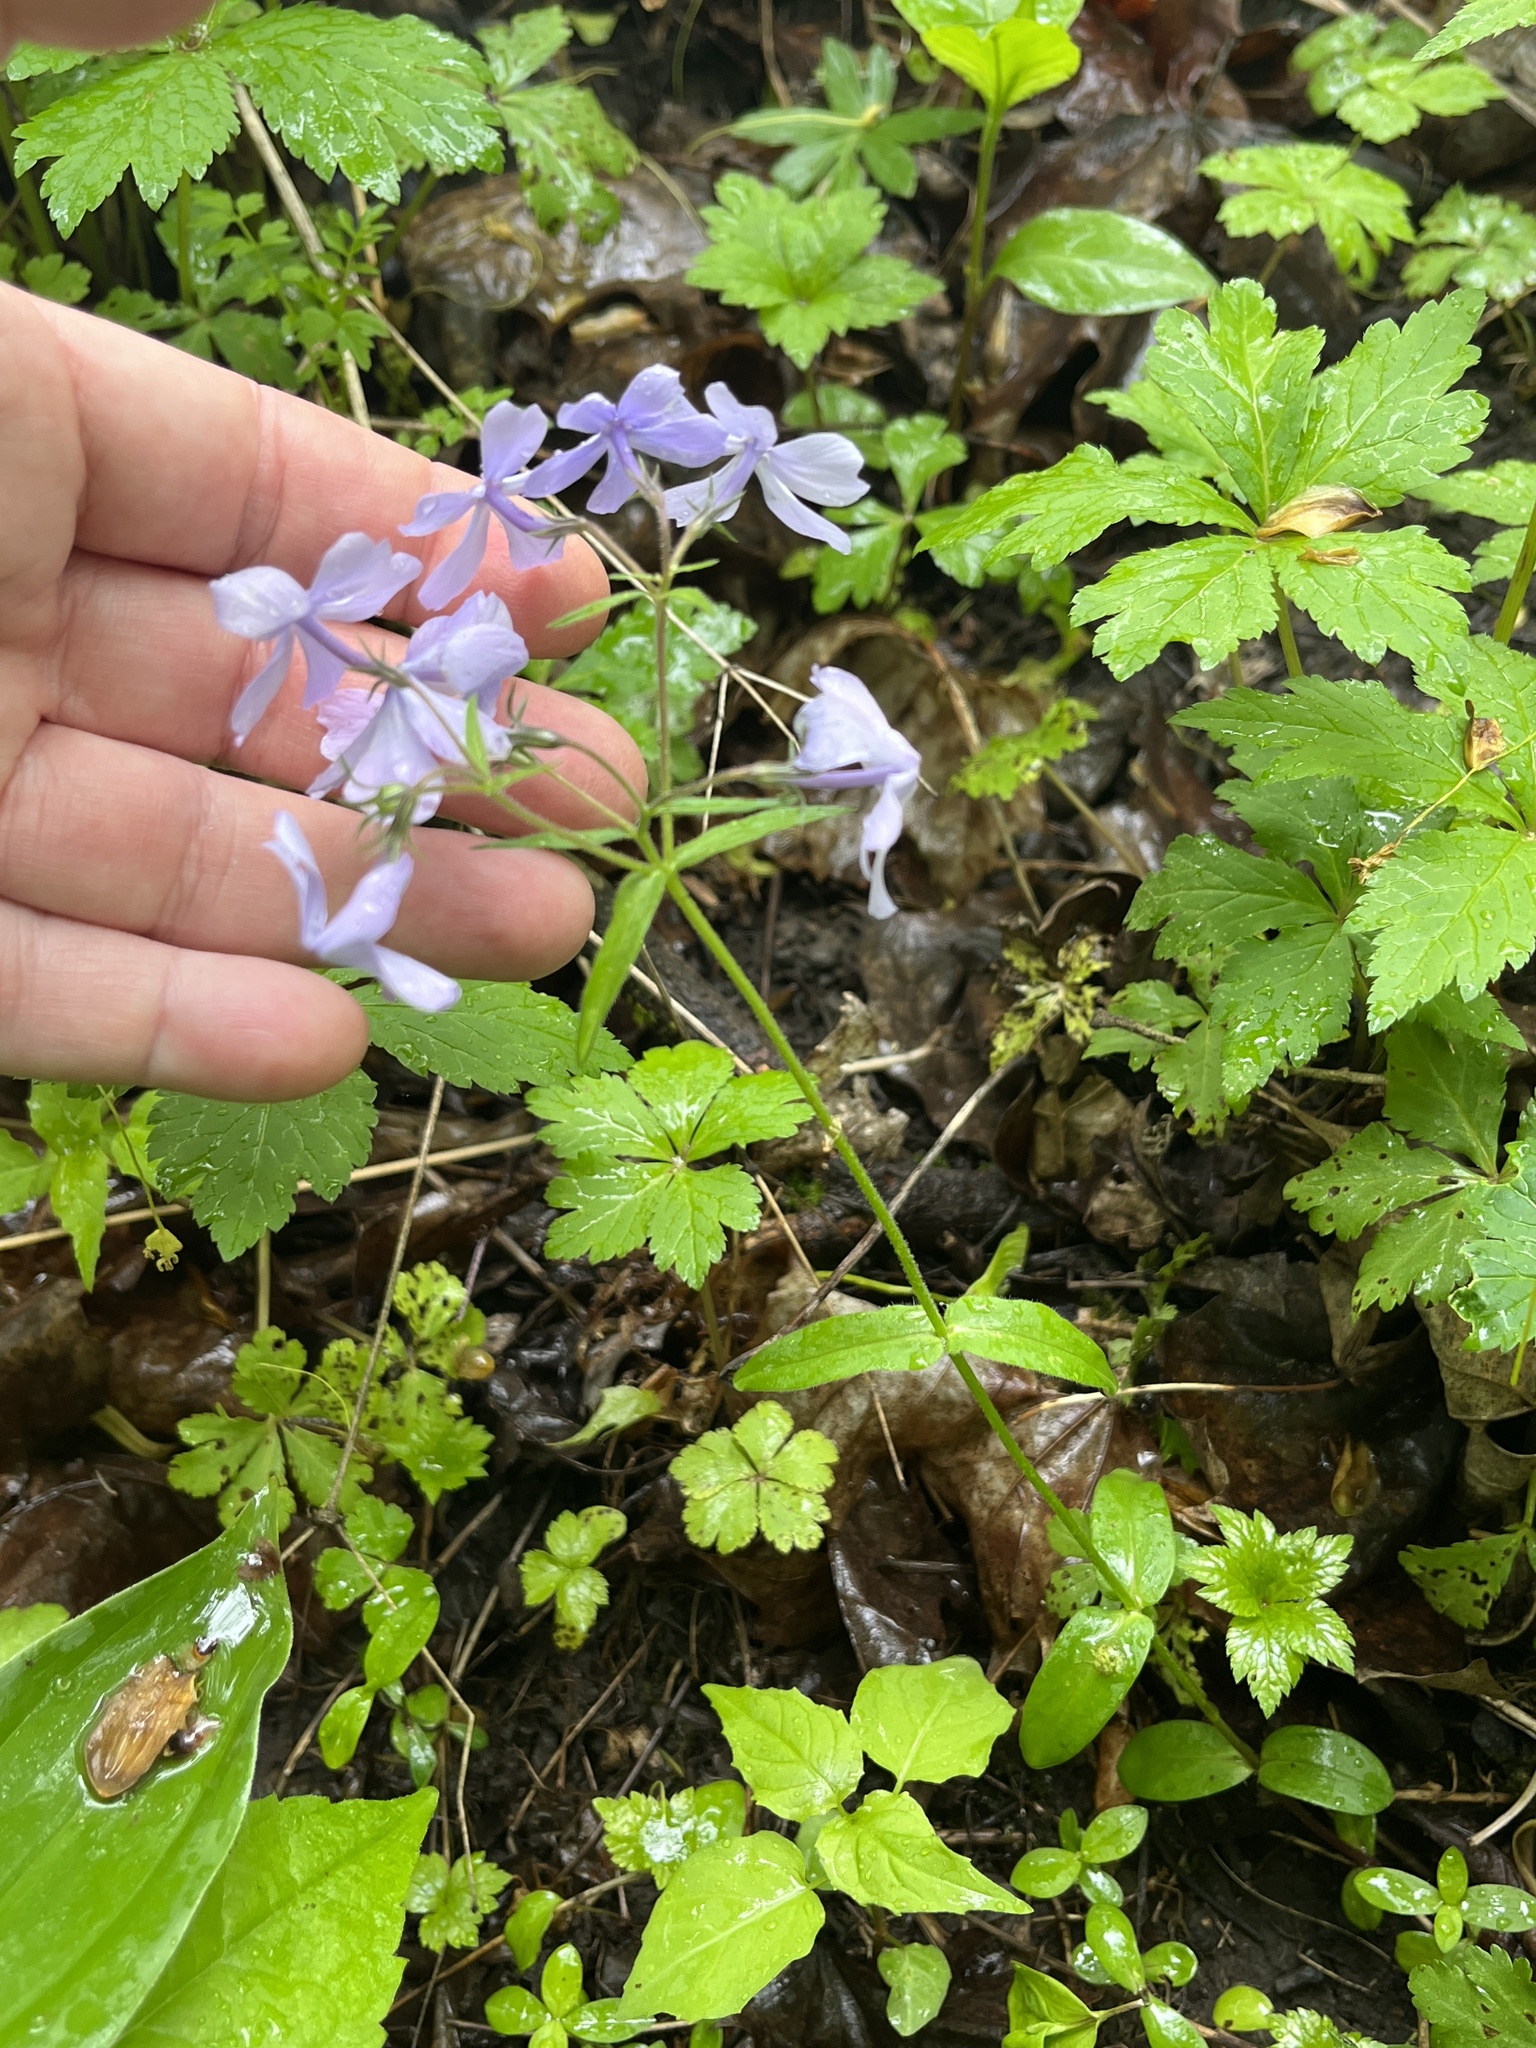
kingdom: Plantae
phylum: Tracheophyta
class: Magnoliopsida
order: Ericales
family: Polemoniaceae
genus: Phlox
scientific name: Phlox divaricata
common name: Blue phlox
